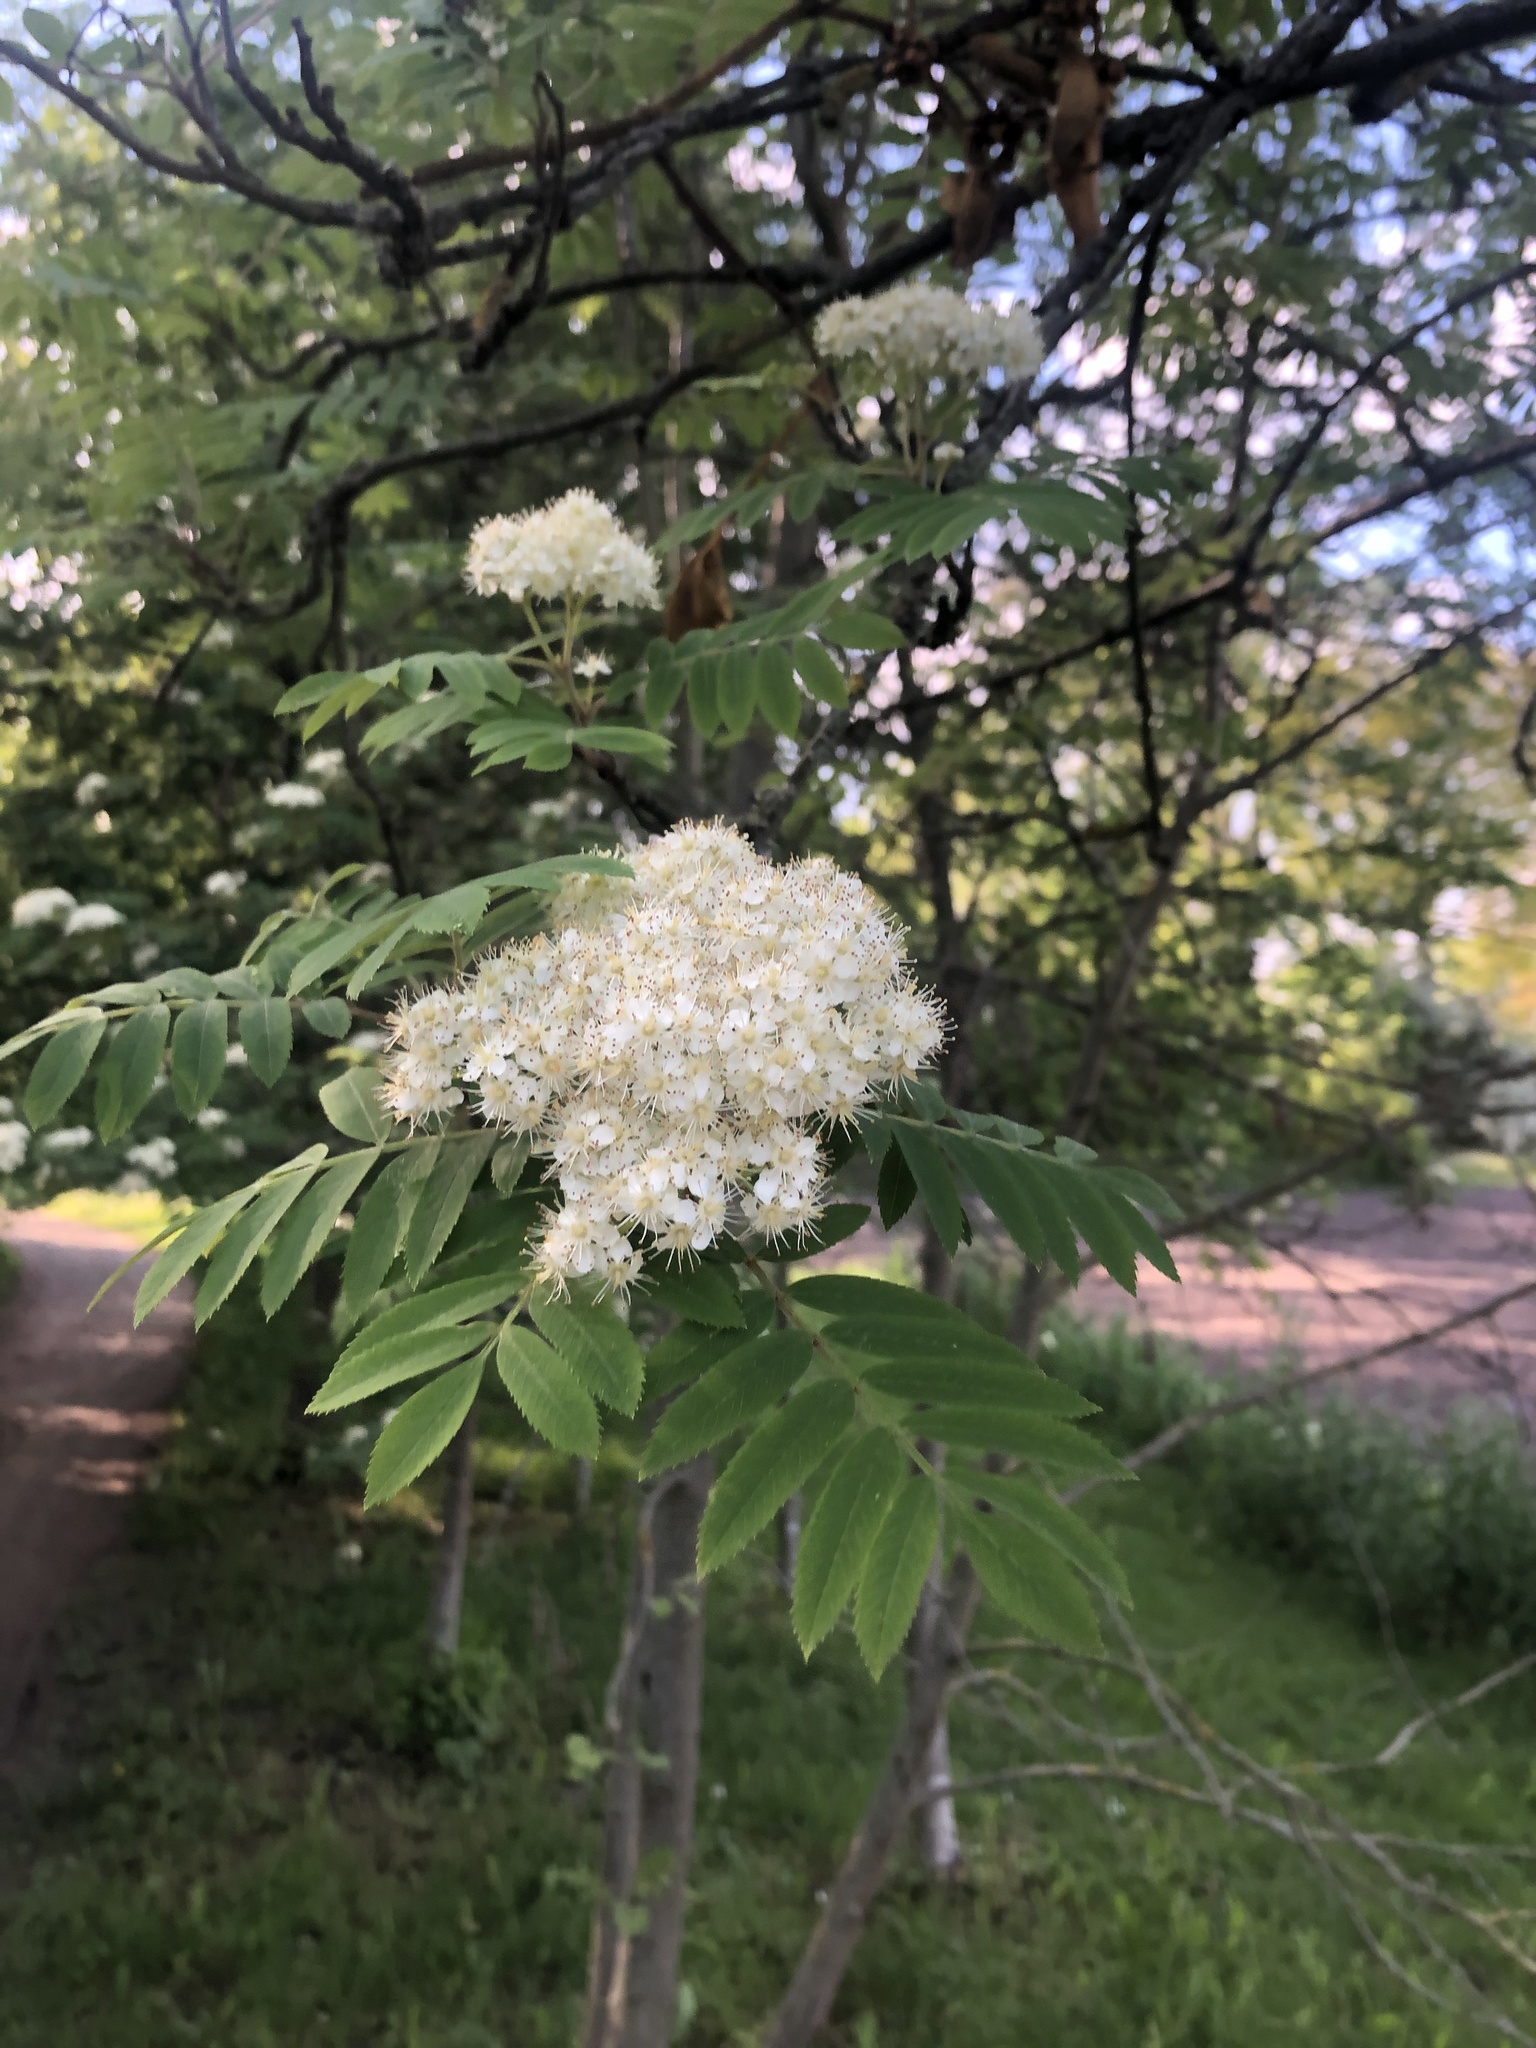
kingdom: Plantae
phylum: Tracheophyta
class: Magnoliopsida
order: Rosales
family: Rosaceae
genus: Sorbus
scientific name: Sorbus aucuparia
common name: Rowan
